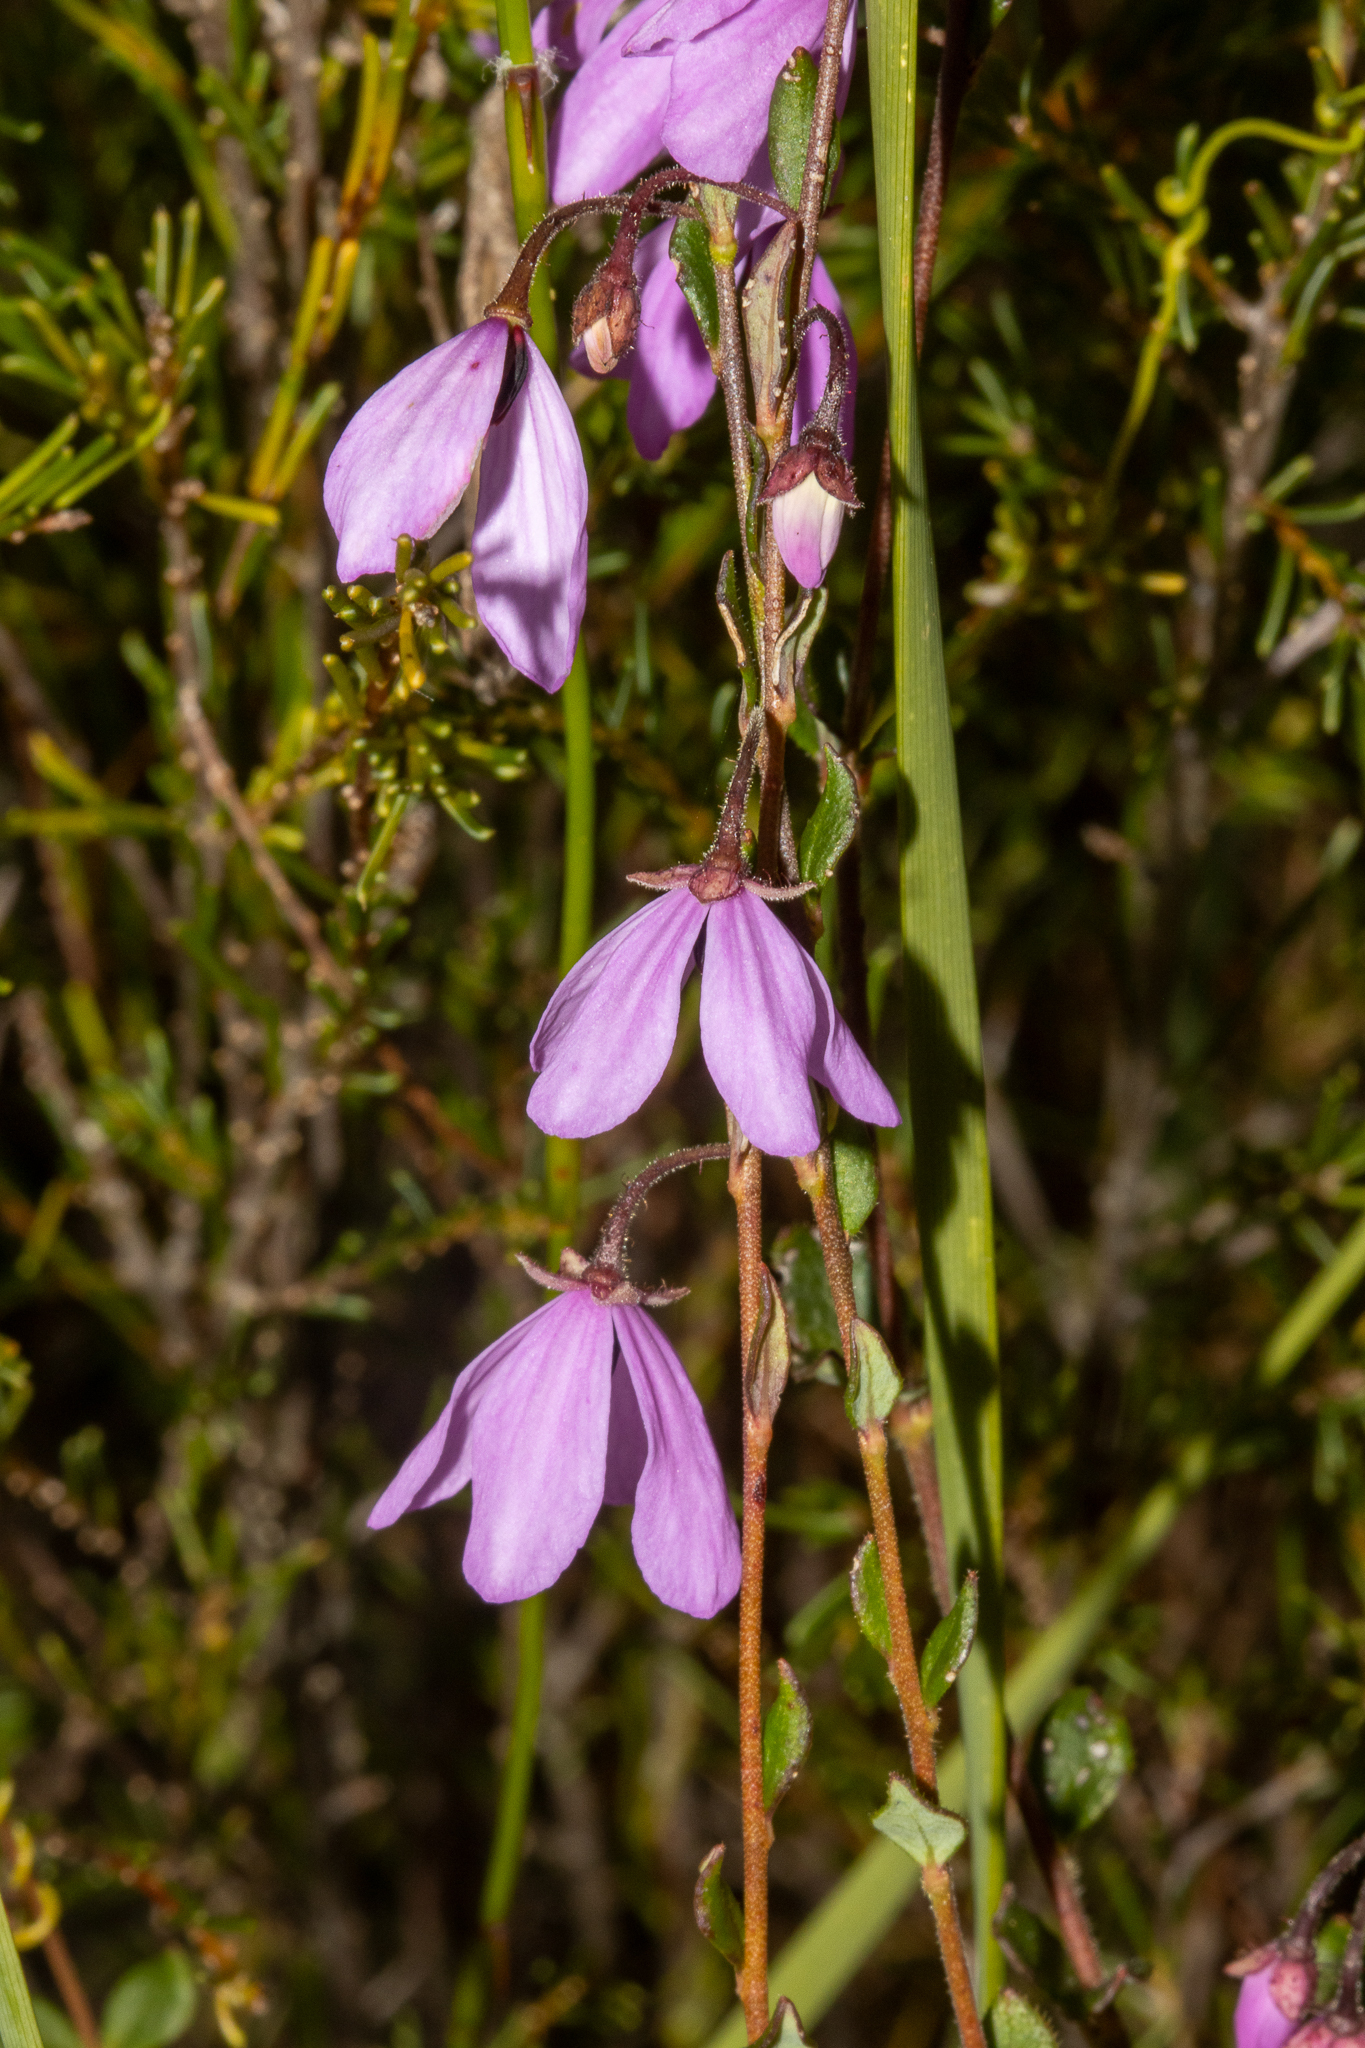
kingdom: Plantae
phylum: Tracheophyta
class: Magnoliopsida
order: Oxalidales
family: Elaeocarpaceae
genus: Tetratheca
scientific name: Tetratheca ciliata
